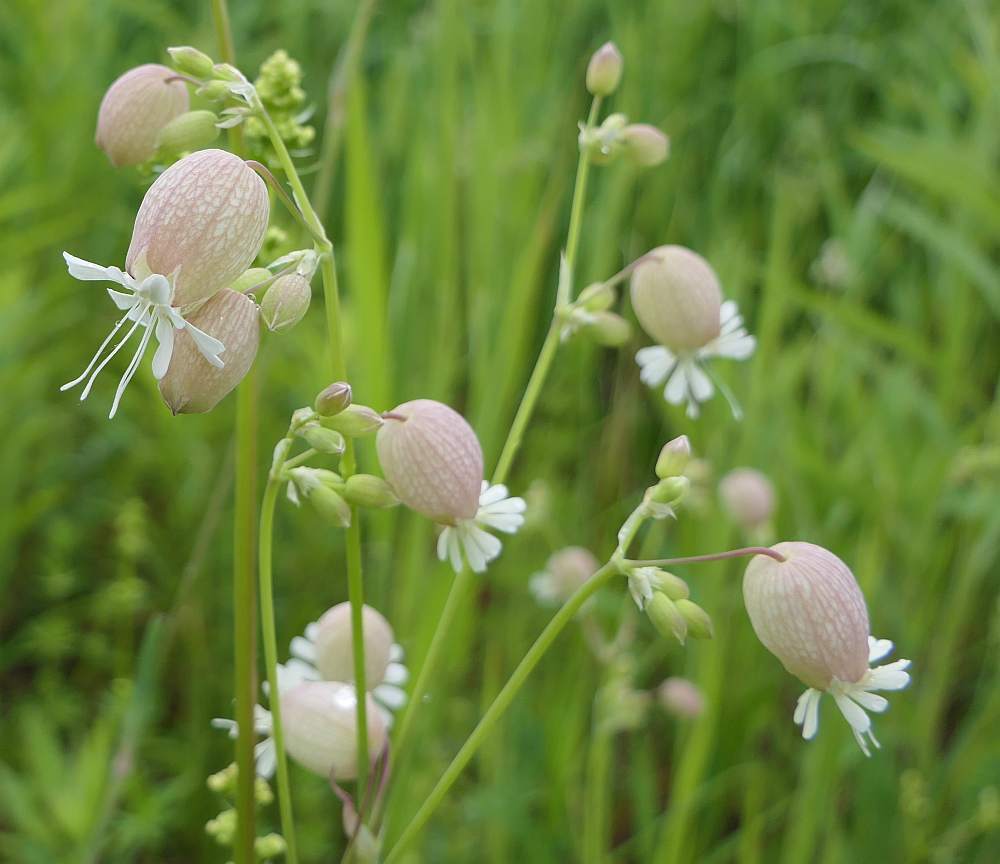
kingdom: Plantae
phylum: Tracheophyta
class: Magnoliopsida
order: Caryophyllales
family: Caryophyllaceae
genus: Silene
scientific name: Silene vulgaris
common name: Bladder campion
